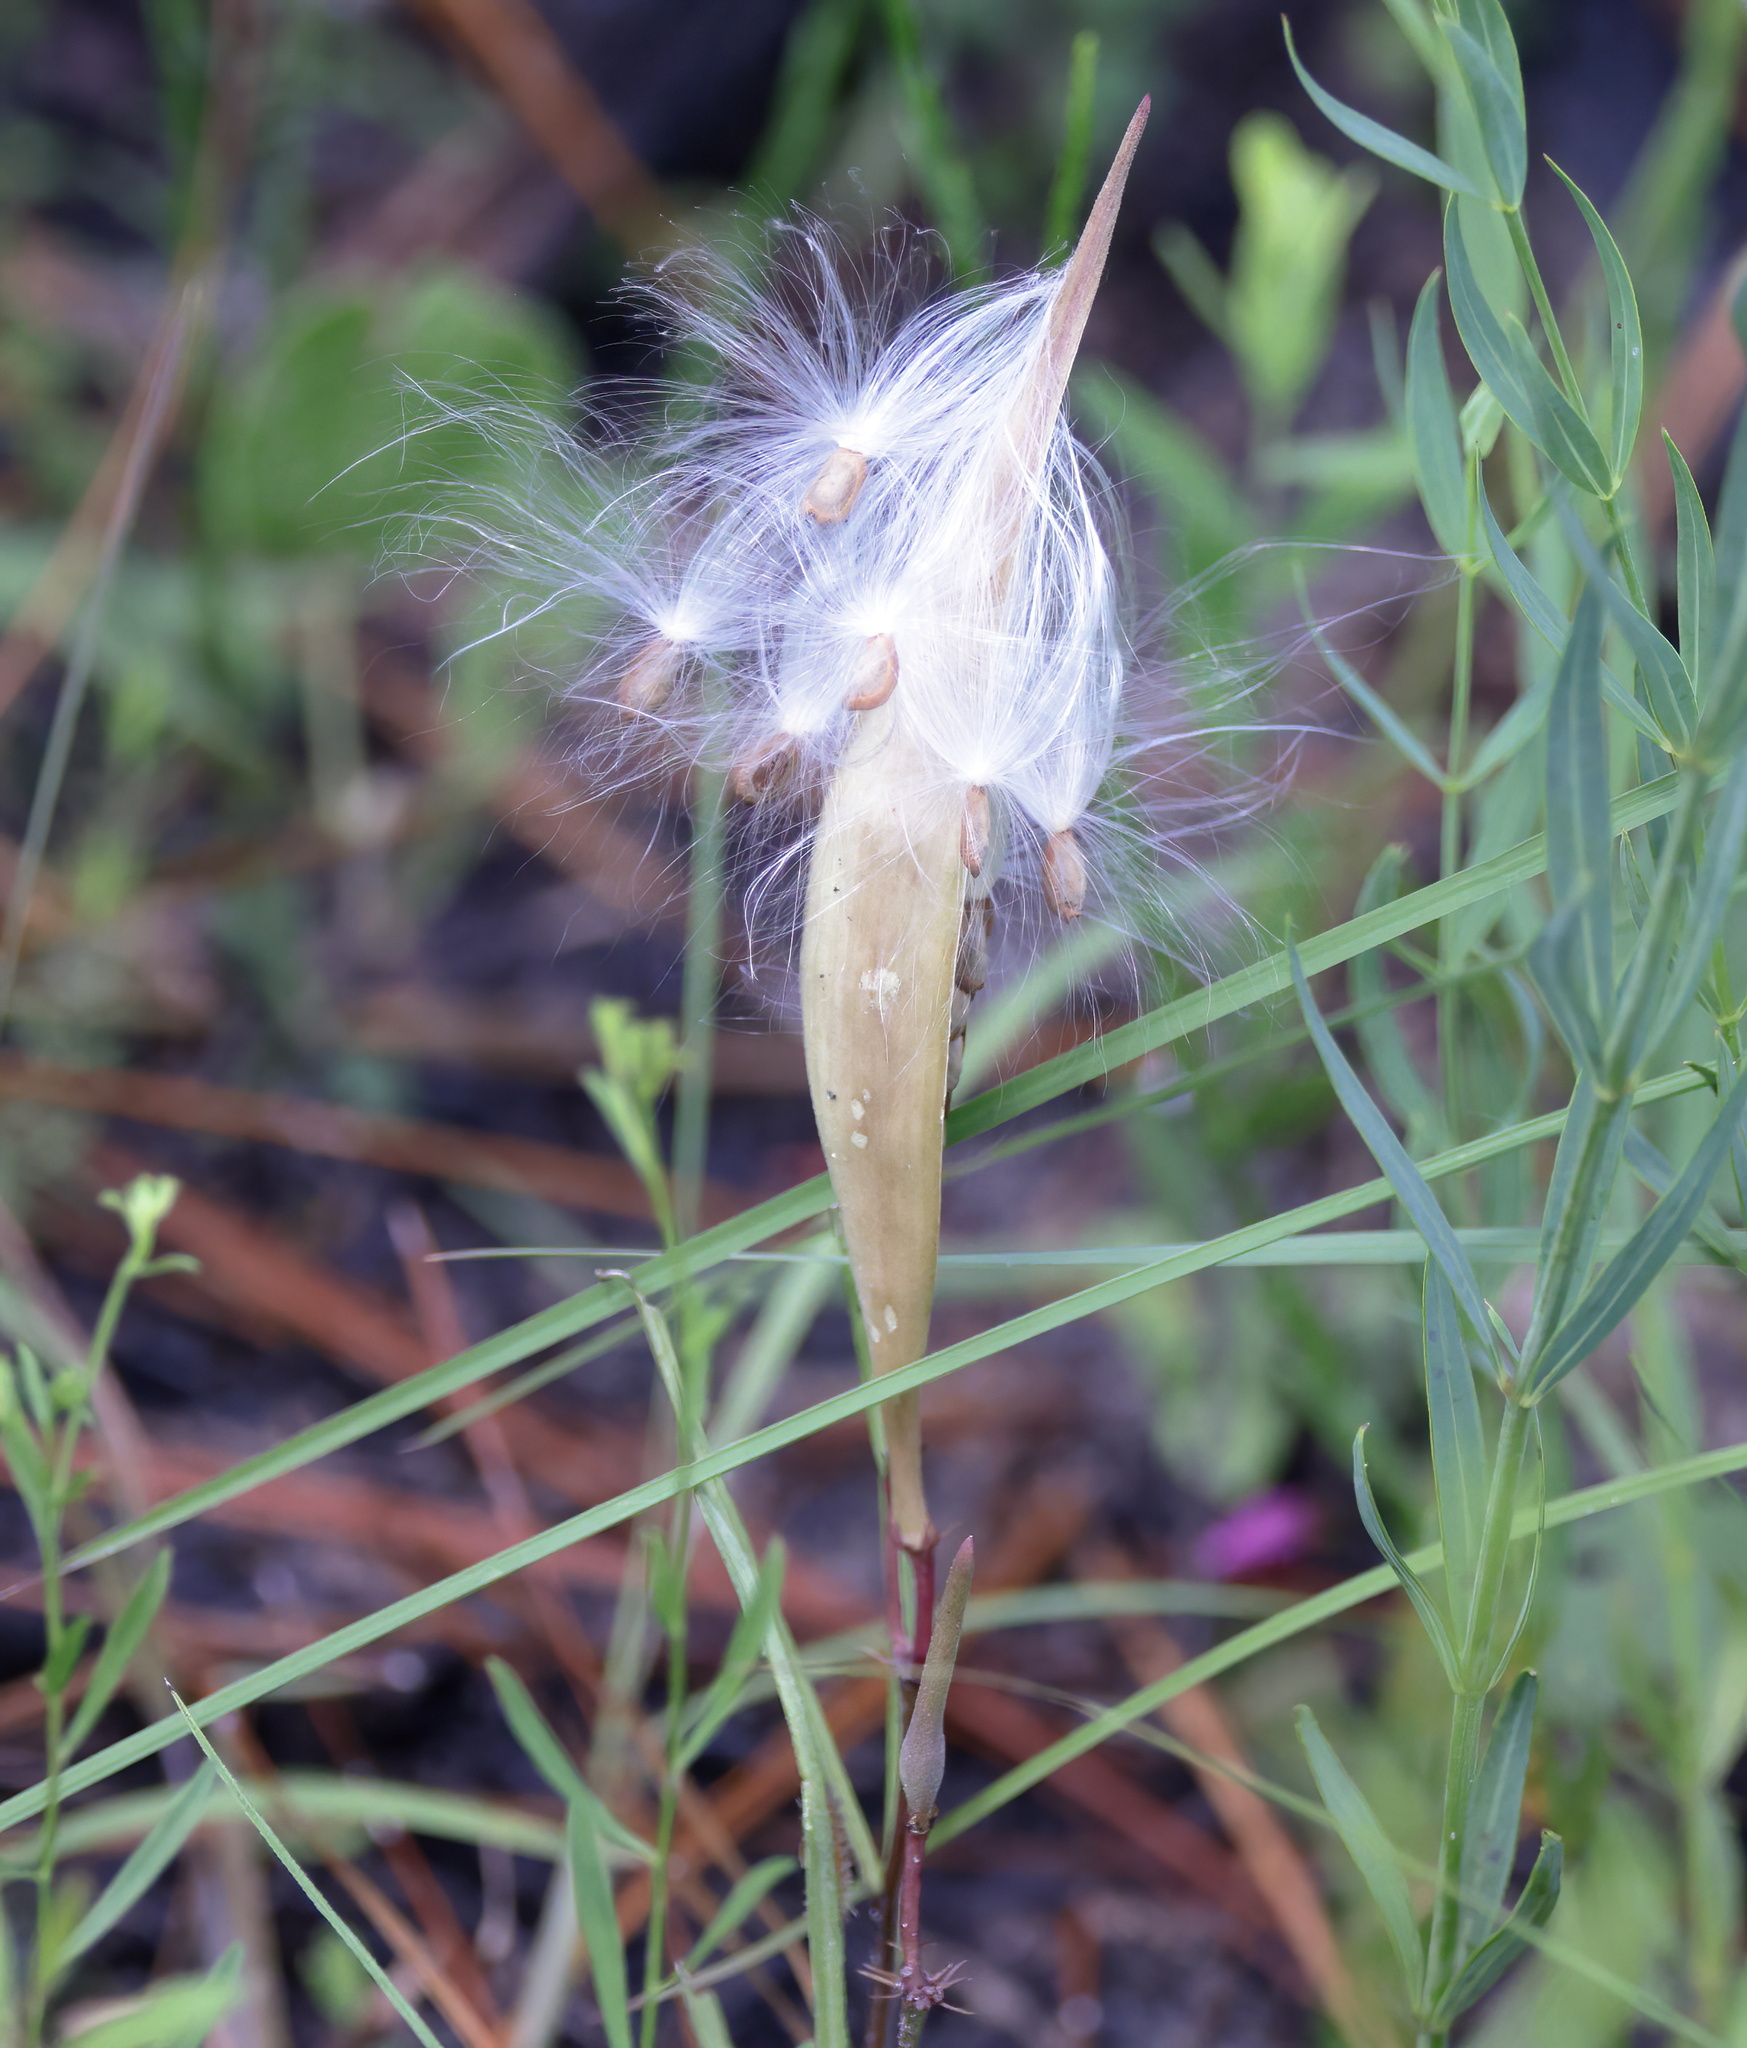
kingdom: Plantae
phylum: Tracheophyta
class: Magnoliopsida
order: Gentianales
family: Apocynaceae
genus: Asclepias
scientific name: Asclepias michauxii
